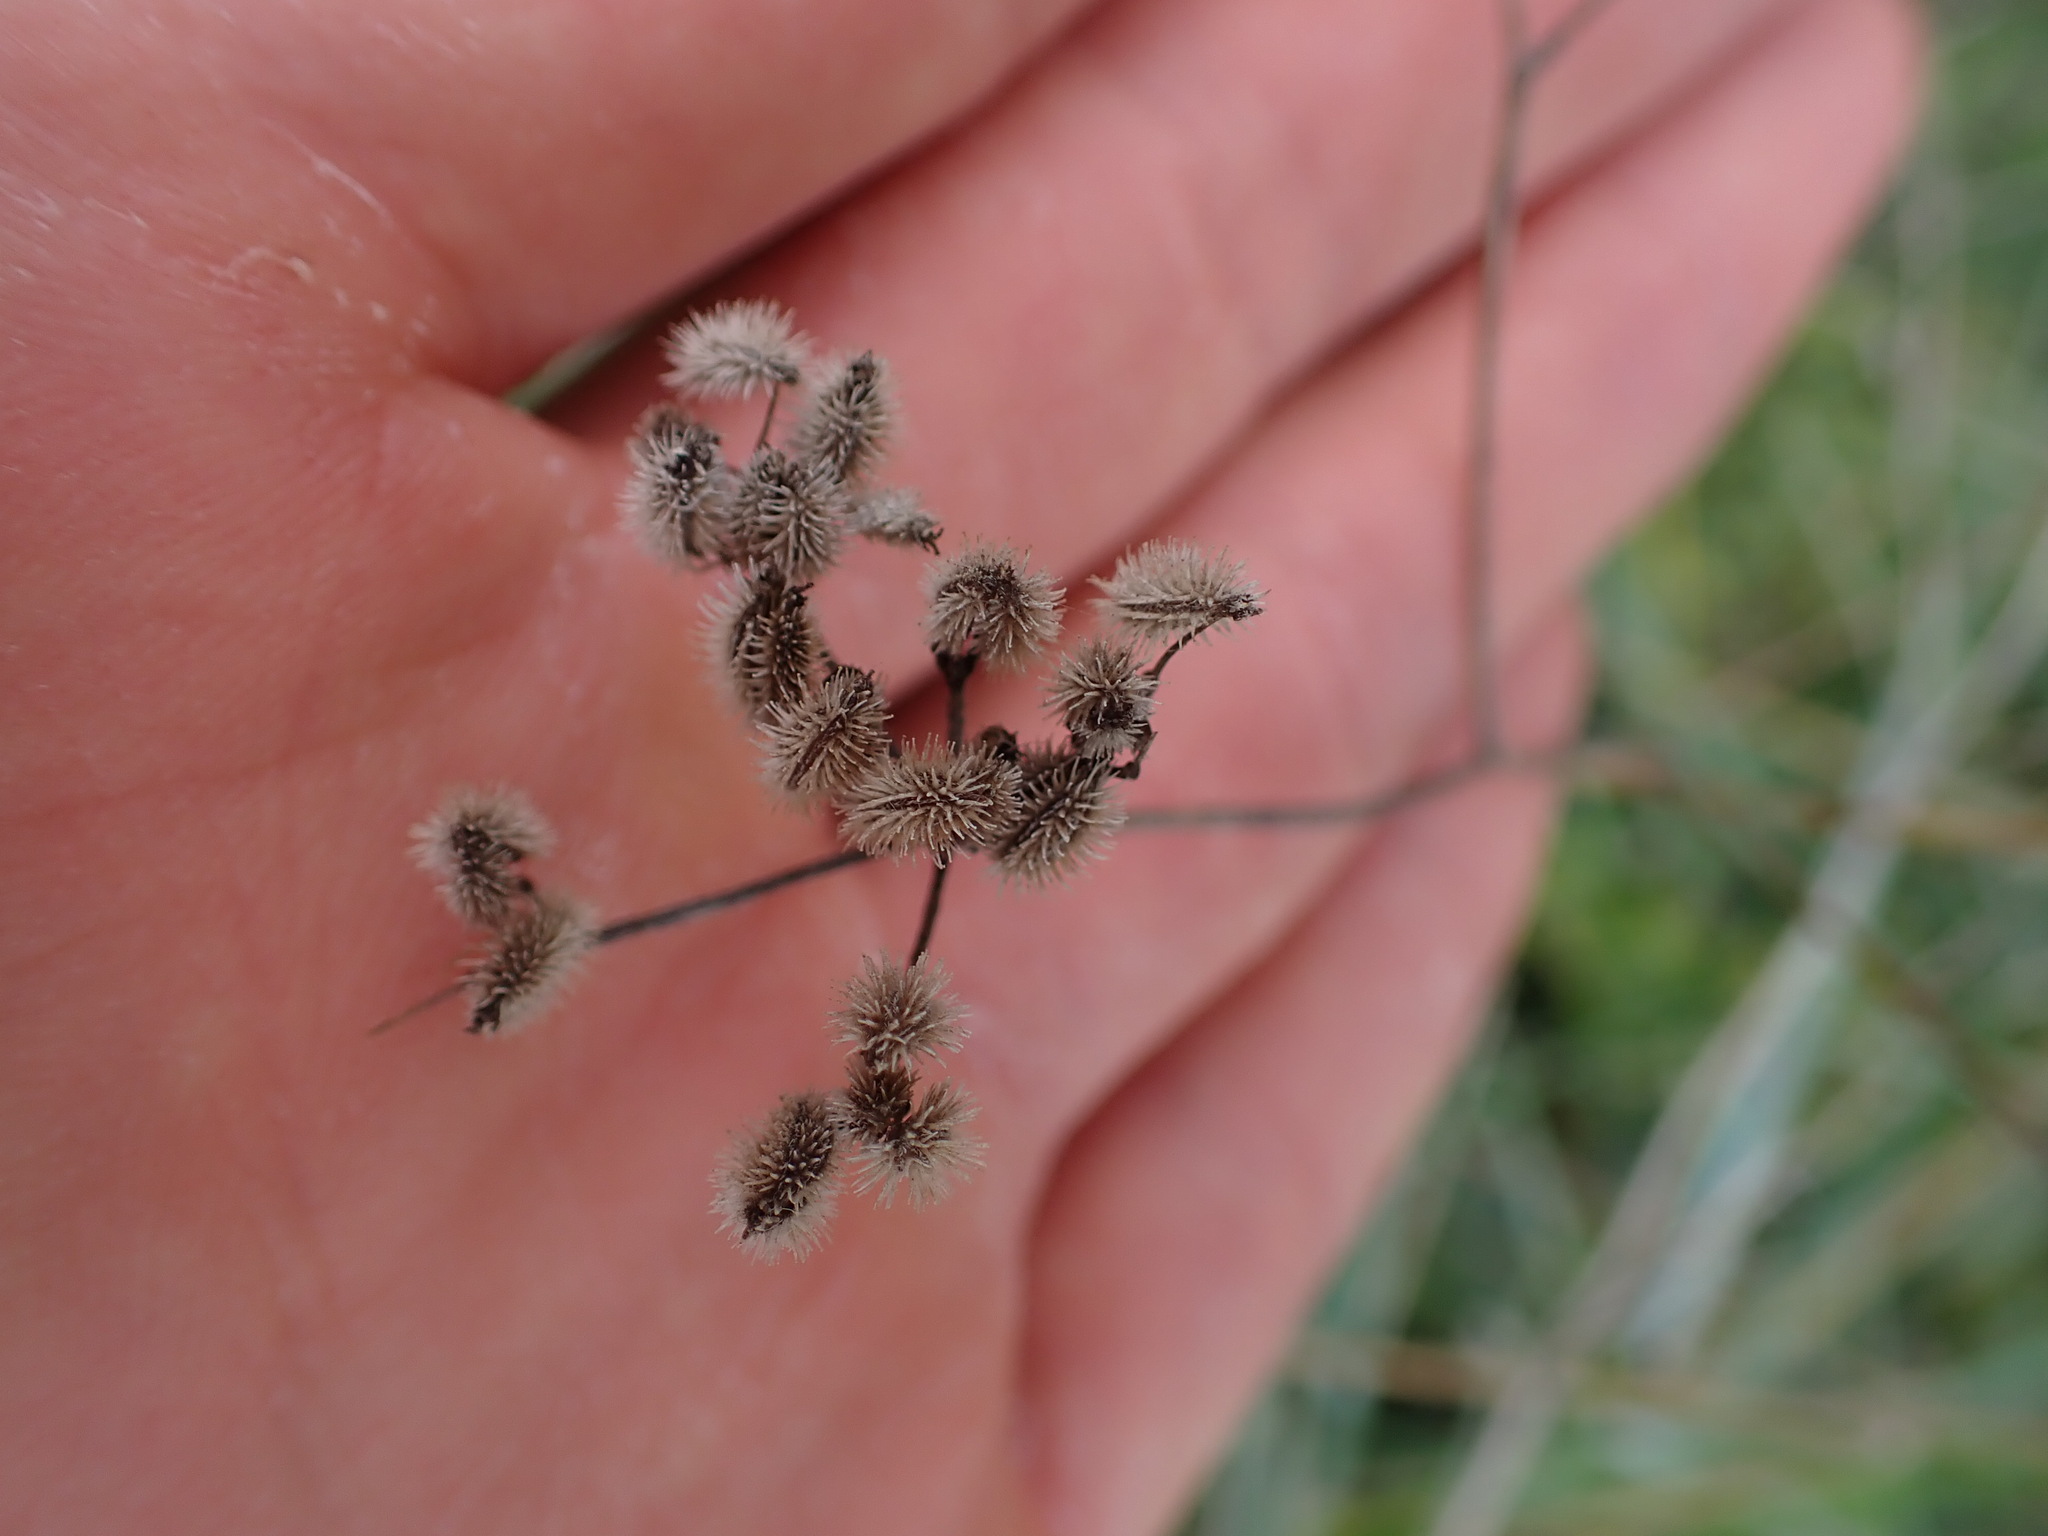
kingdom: Plantae
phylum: Tracheophyta
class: Magnoliopsida
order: Apiales
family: Apiaceae
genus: Torilis
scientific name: Torilis arvensis
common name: Spreading hedge-parsley
